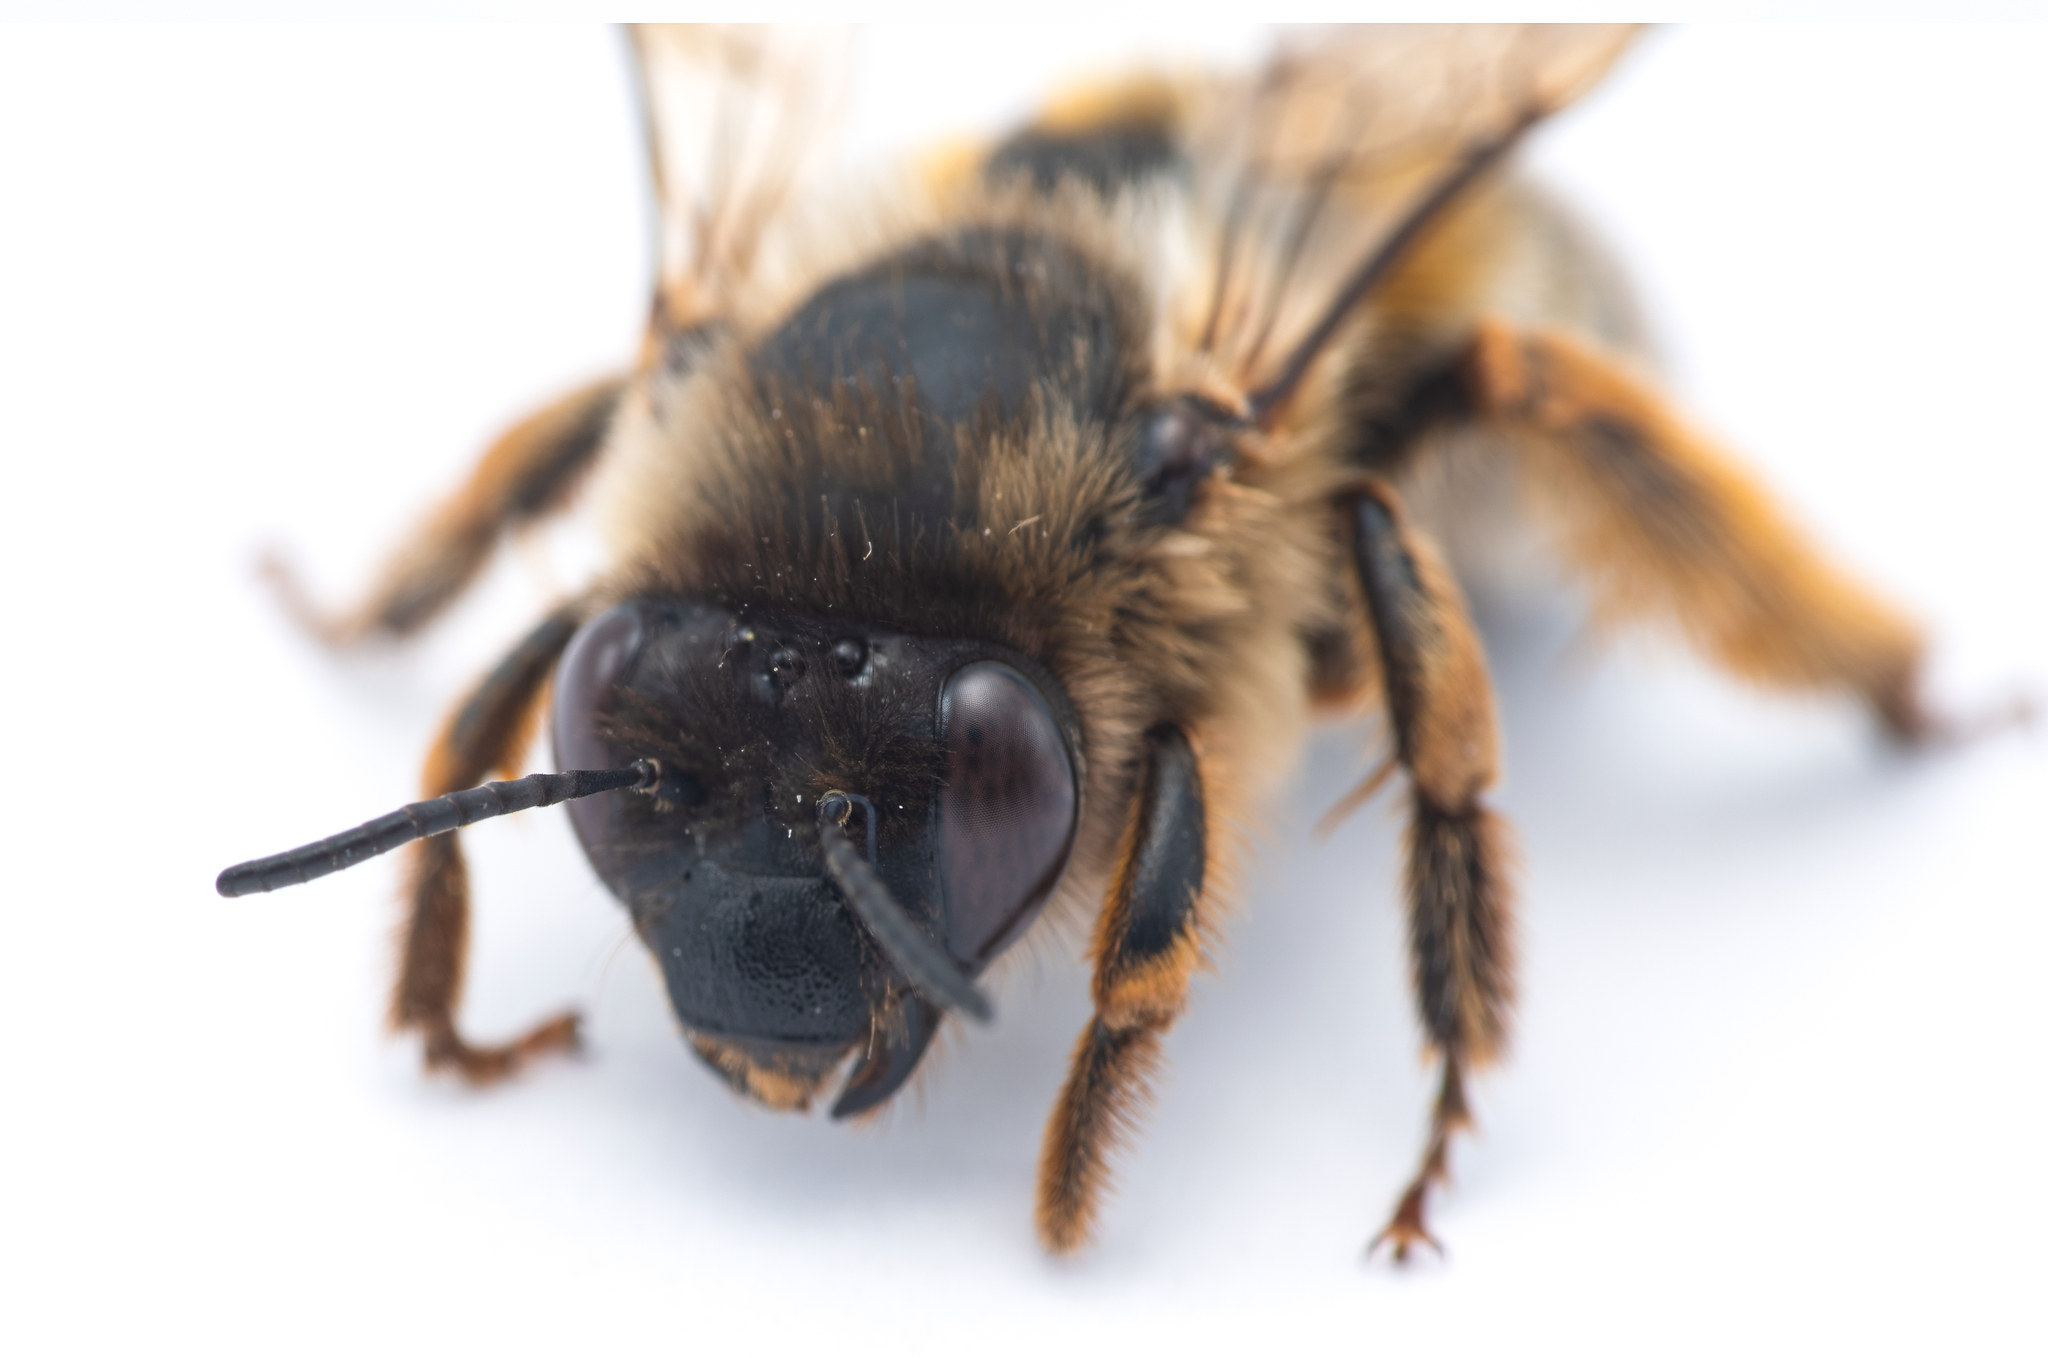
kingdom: Animalia
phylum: Arthropoda
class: Insecta
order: Hymenoptera
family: Apidae
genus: Eucera
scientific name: Eucera nigrilabris
